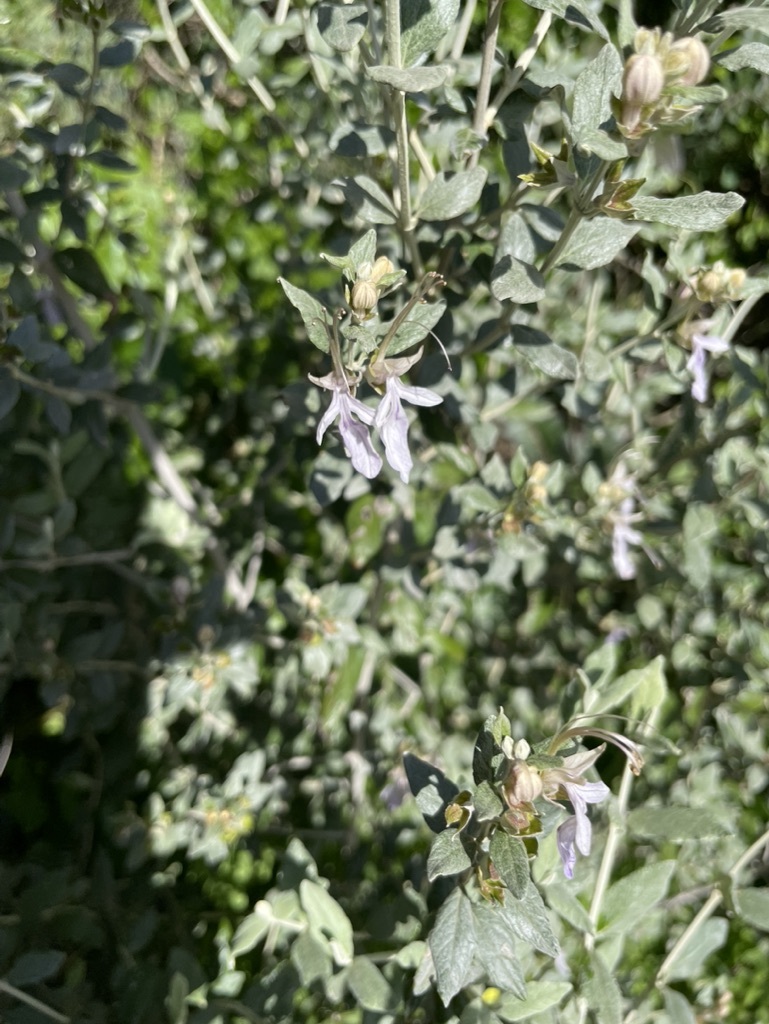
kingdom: Plantae
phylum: Tracheophyta
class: Magnoliopsida
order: Lamiales
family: Lamiaceae
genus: Teucrium
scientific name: Teucrium fruticans
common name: Shrubby germander
